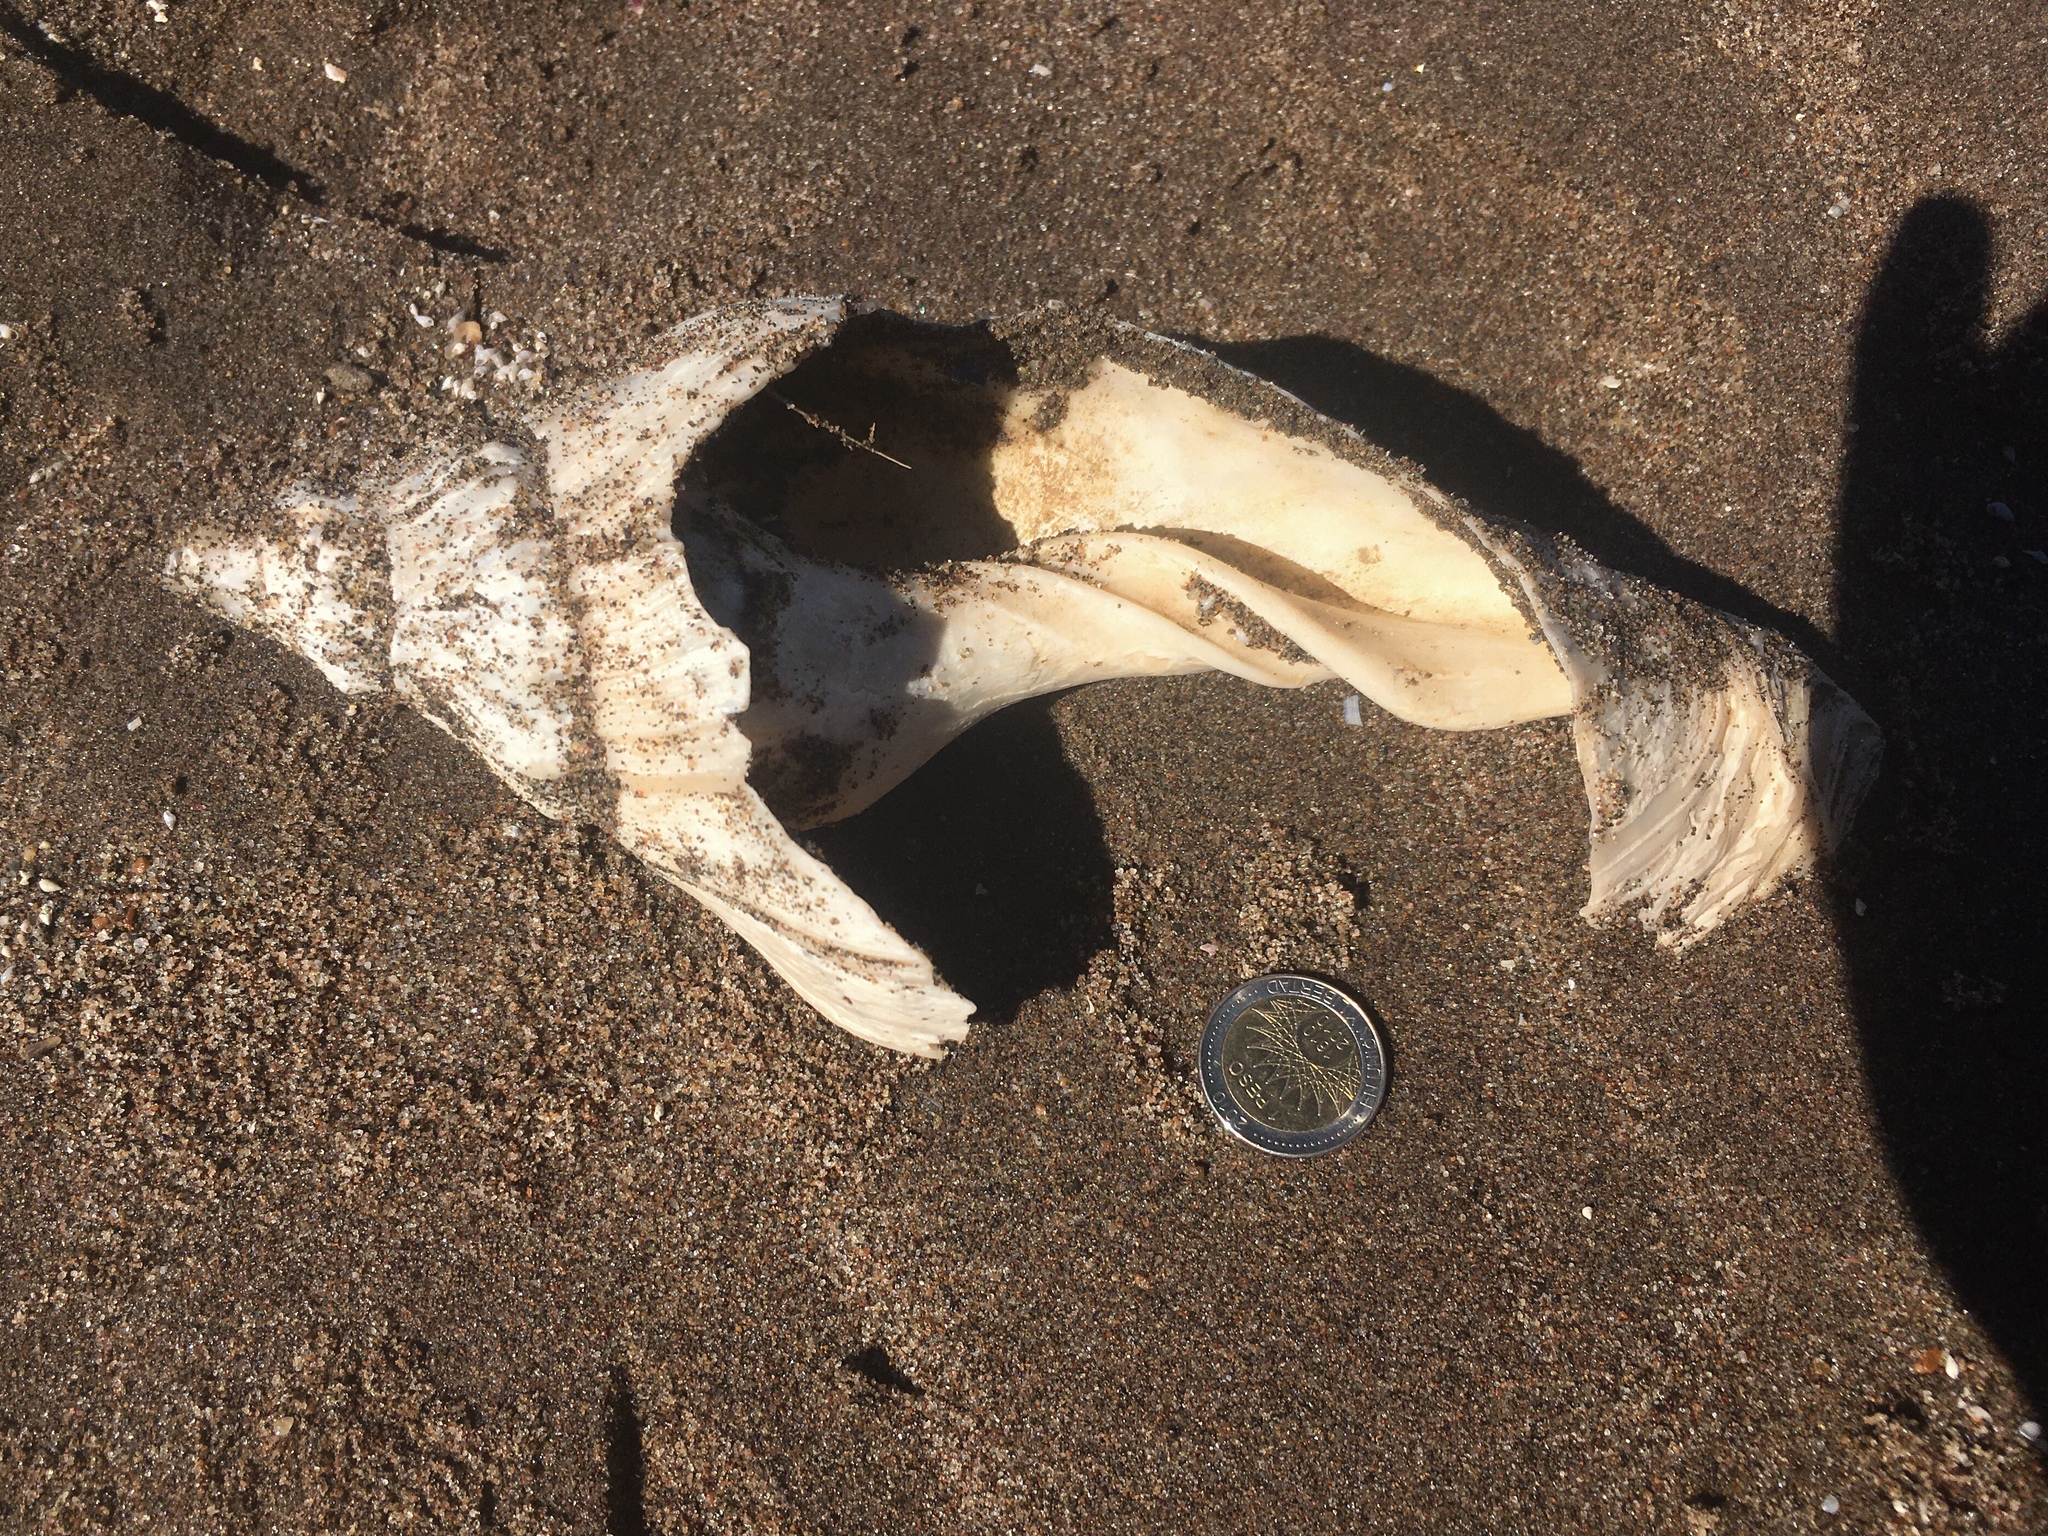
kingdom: Animalia
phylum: Mollusca
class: Gastropoda
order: Neogastropoda
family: Volutidae
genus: Adelomelon
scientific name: Adelomelon beckii
